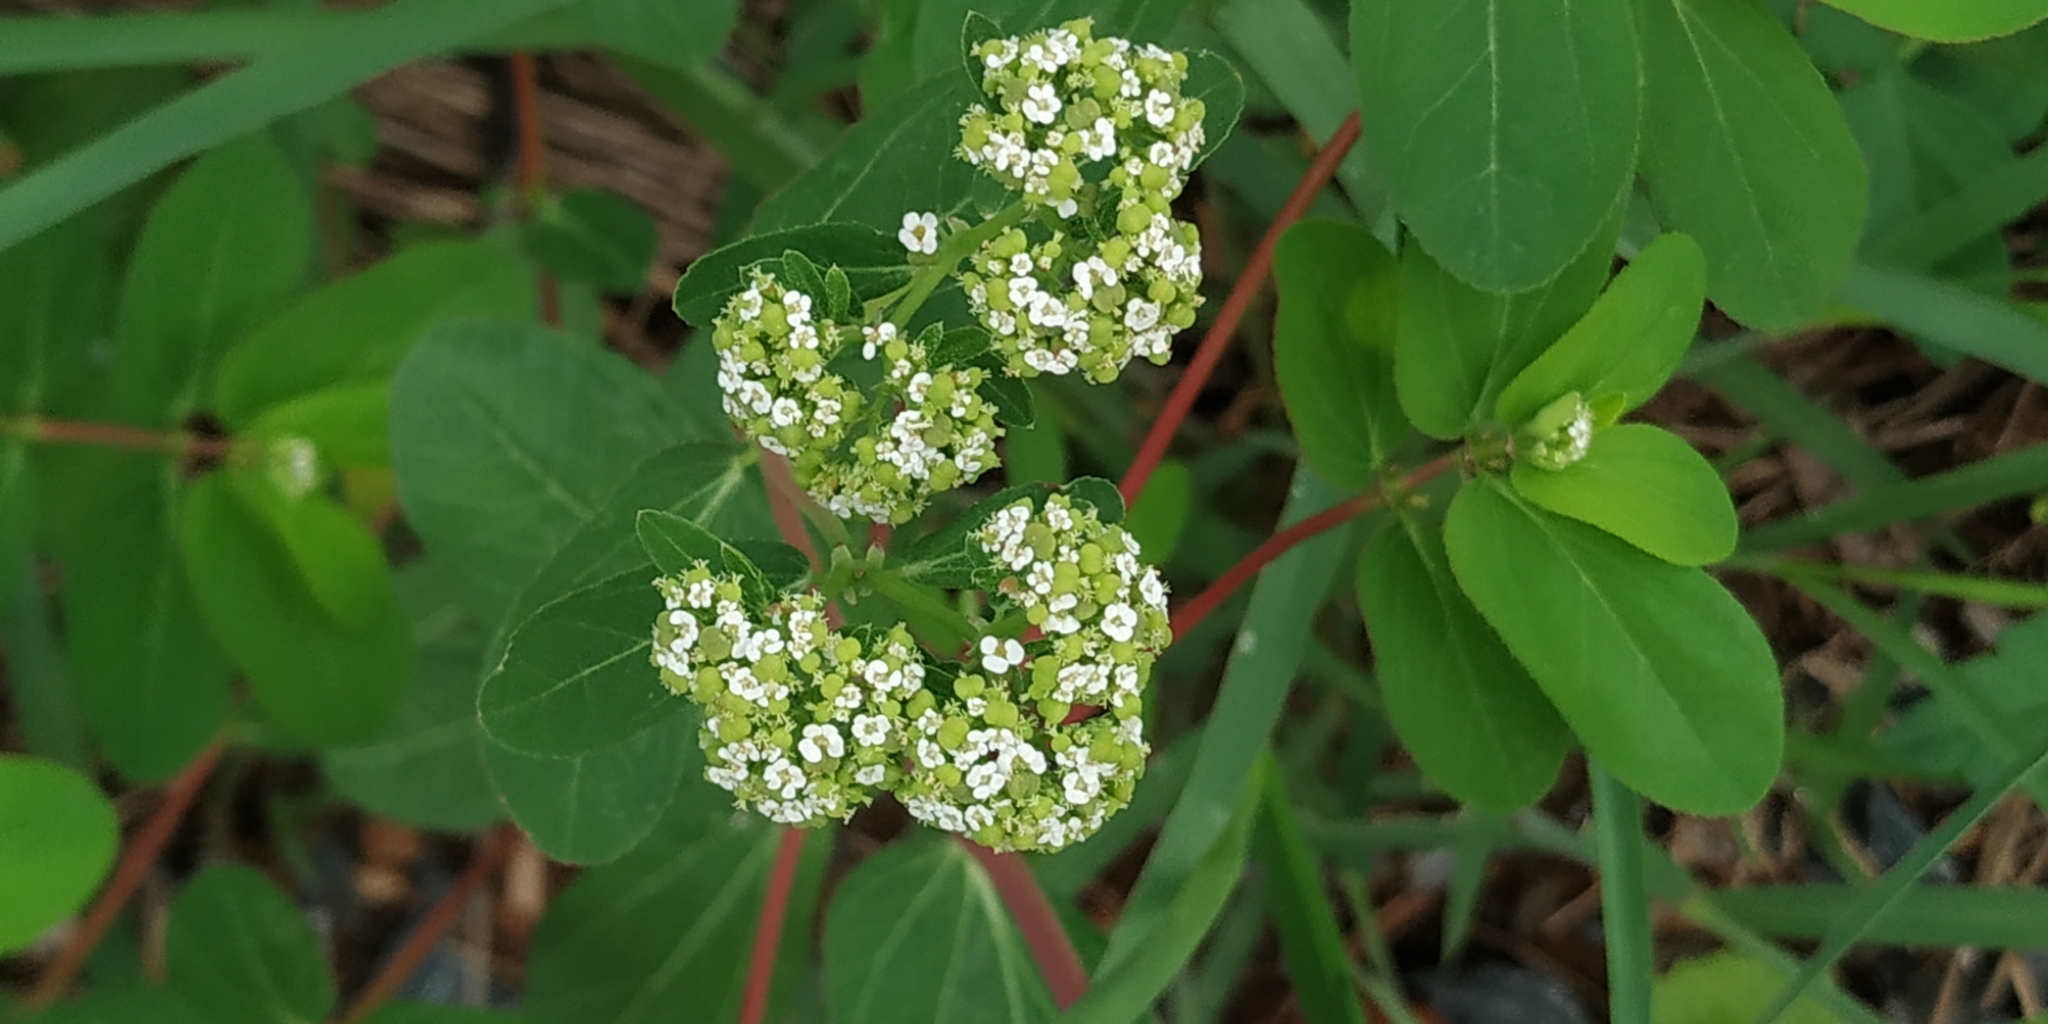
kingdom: Plantae
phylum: Tracheophyta
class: Magnoliopsida
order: Malpighiales
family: Euphorbiaceae
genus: Euphorbia
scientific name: Euphorbia hypericifolia
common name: Graceful sandmat
